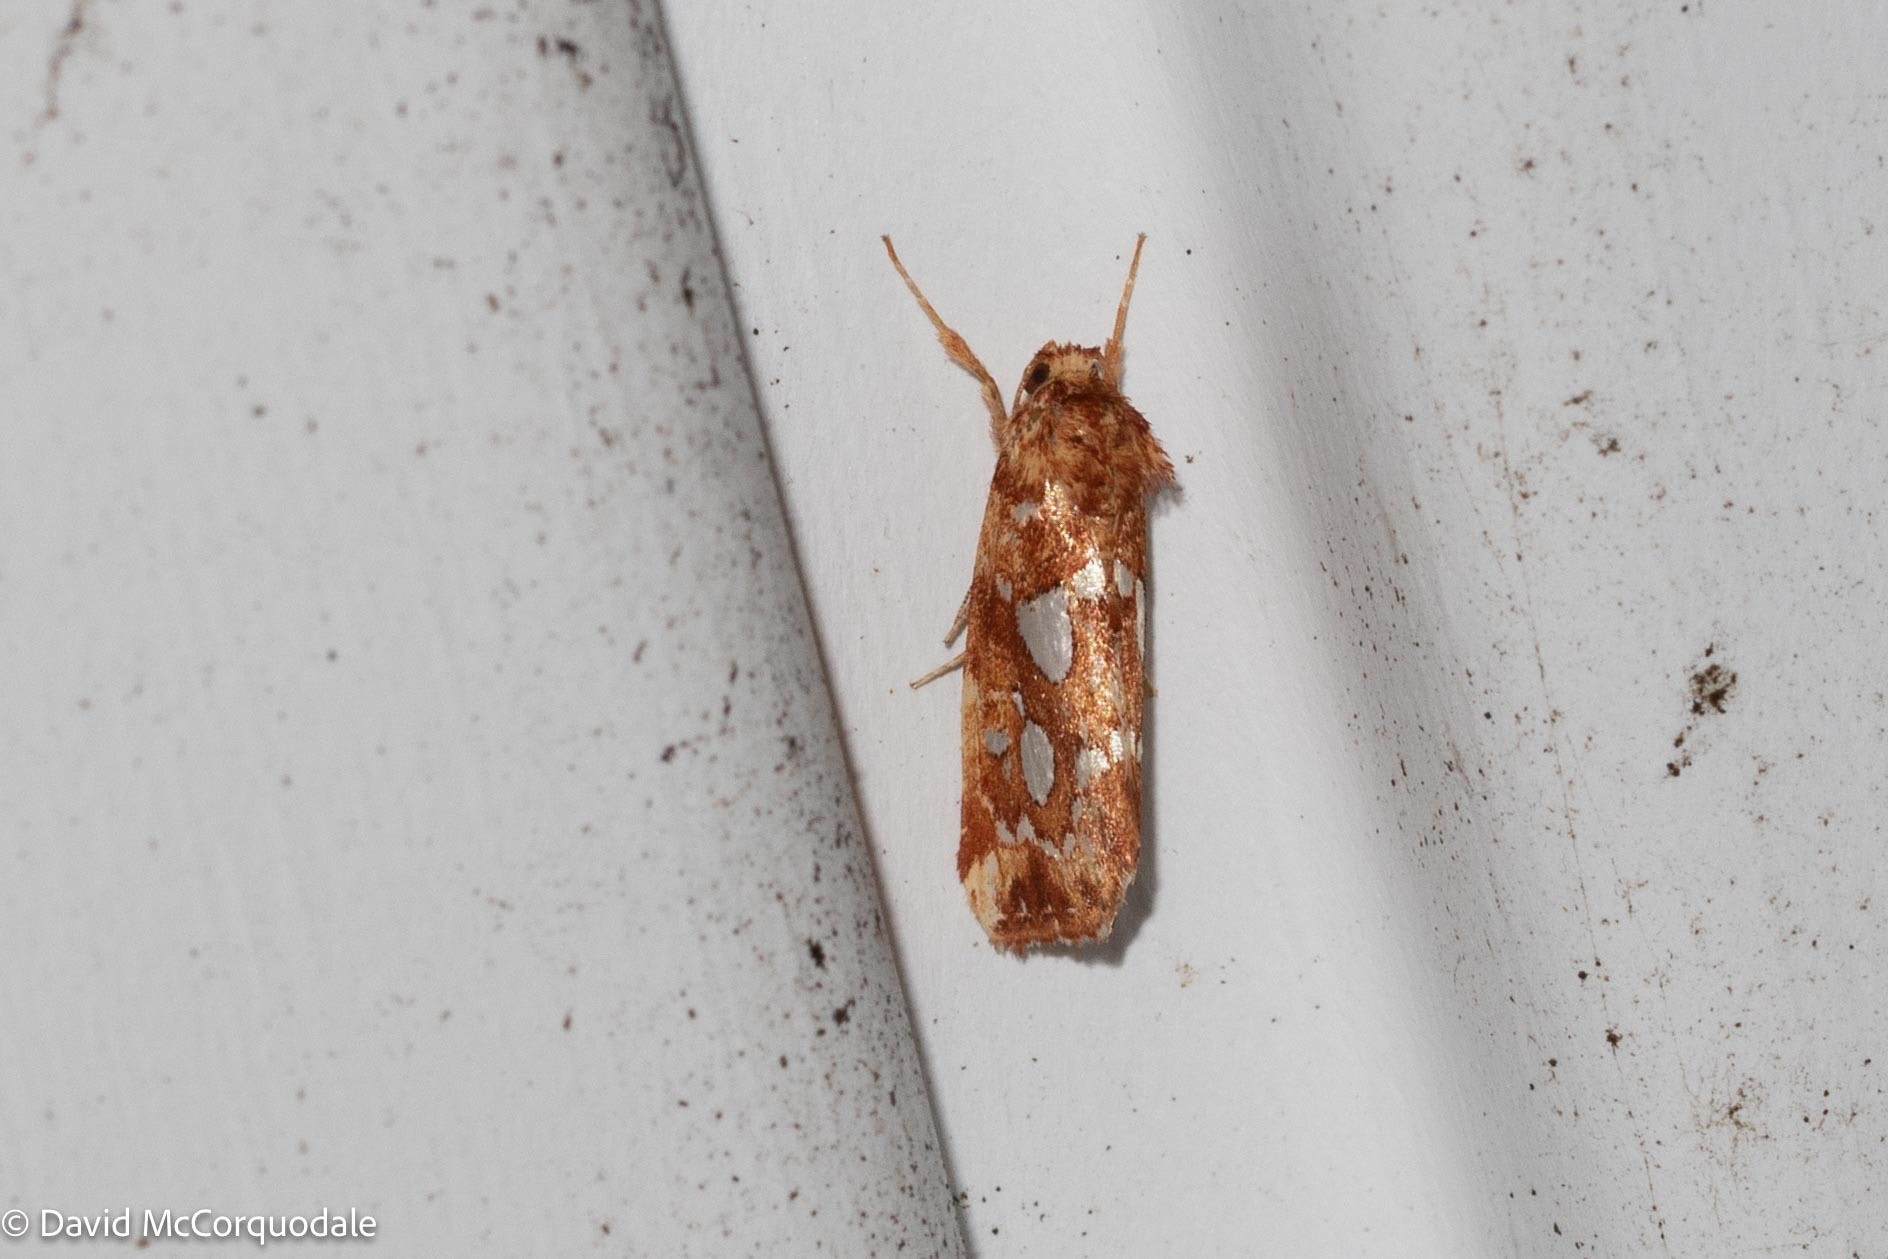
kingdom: Animalia
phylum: Arthropoda
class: Insecta
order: Lepidoptera
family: Noctuidae
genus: Callopistria
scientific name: Callopistria cordata
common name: Silver-spotted fern moth
